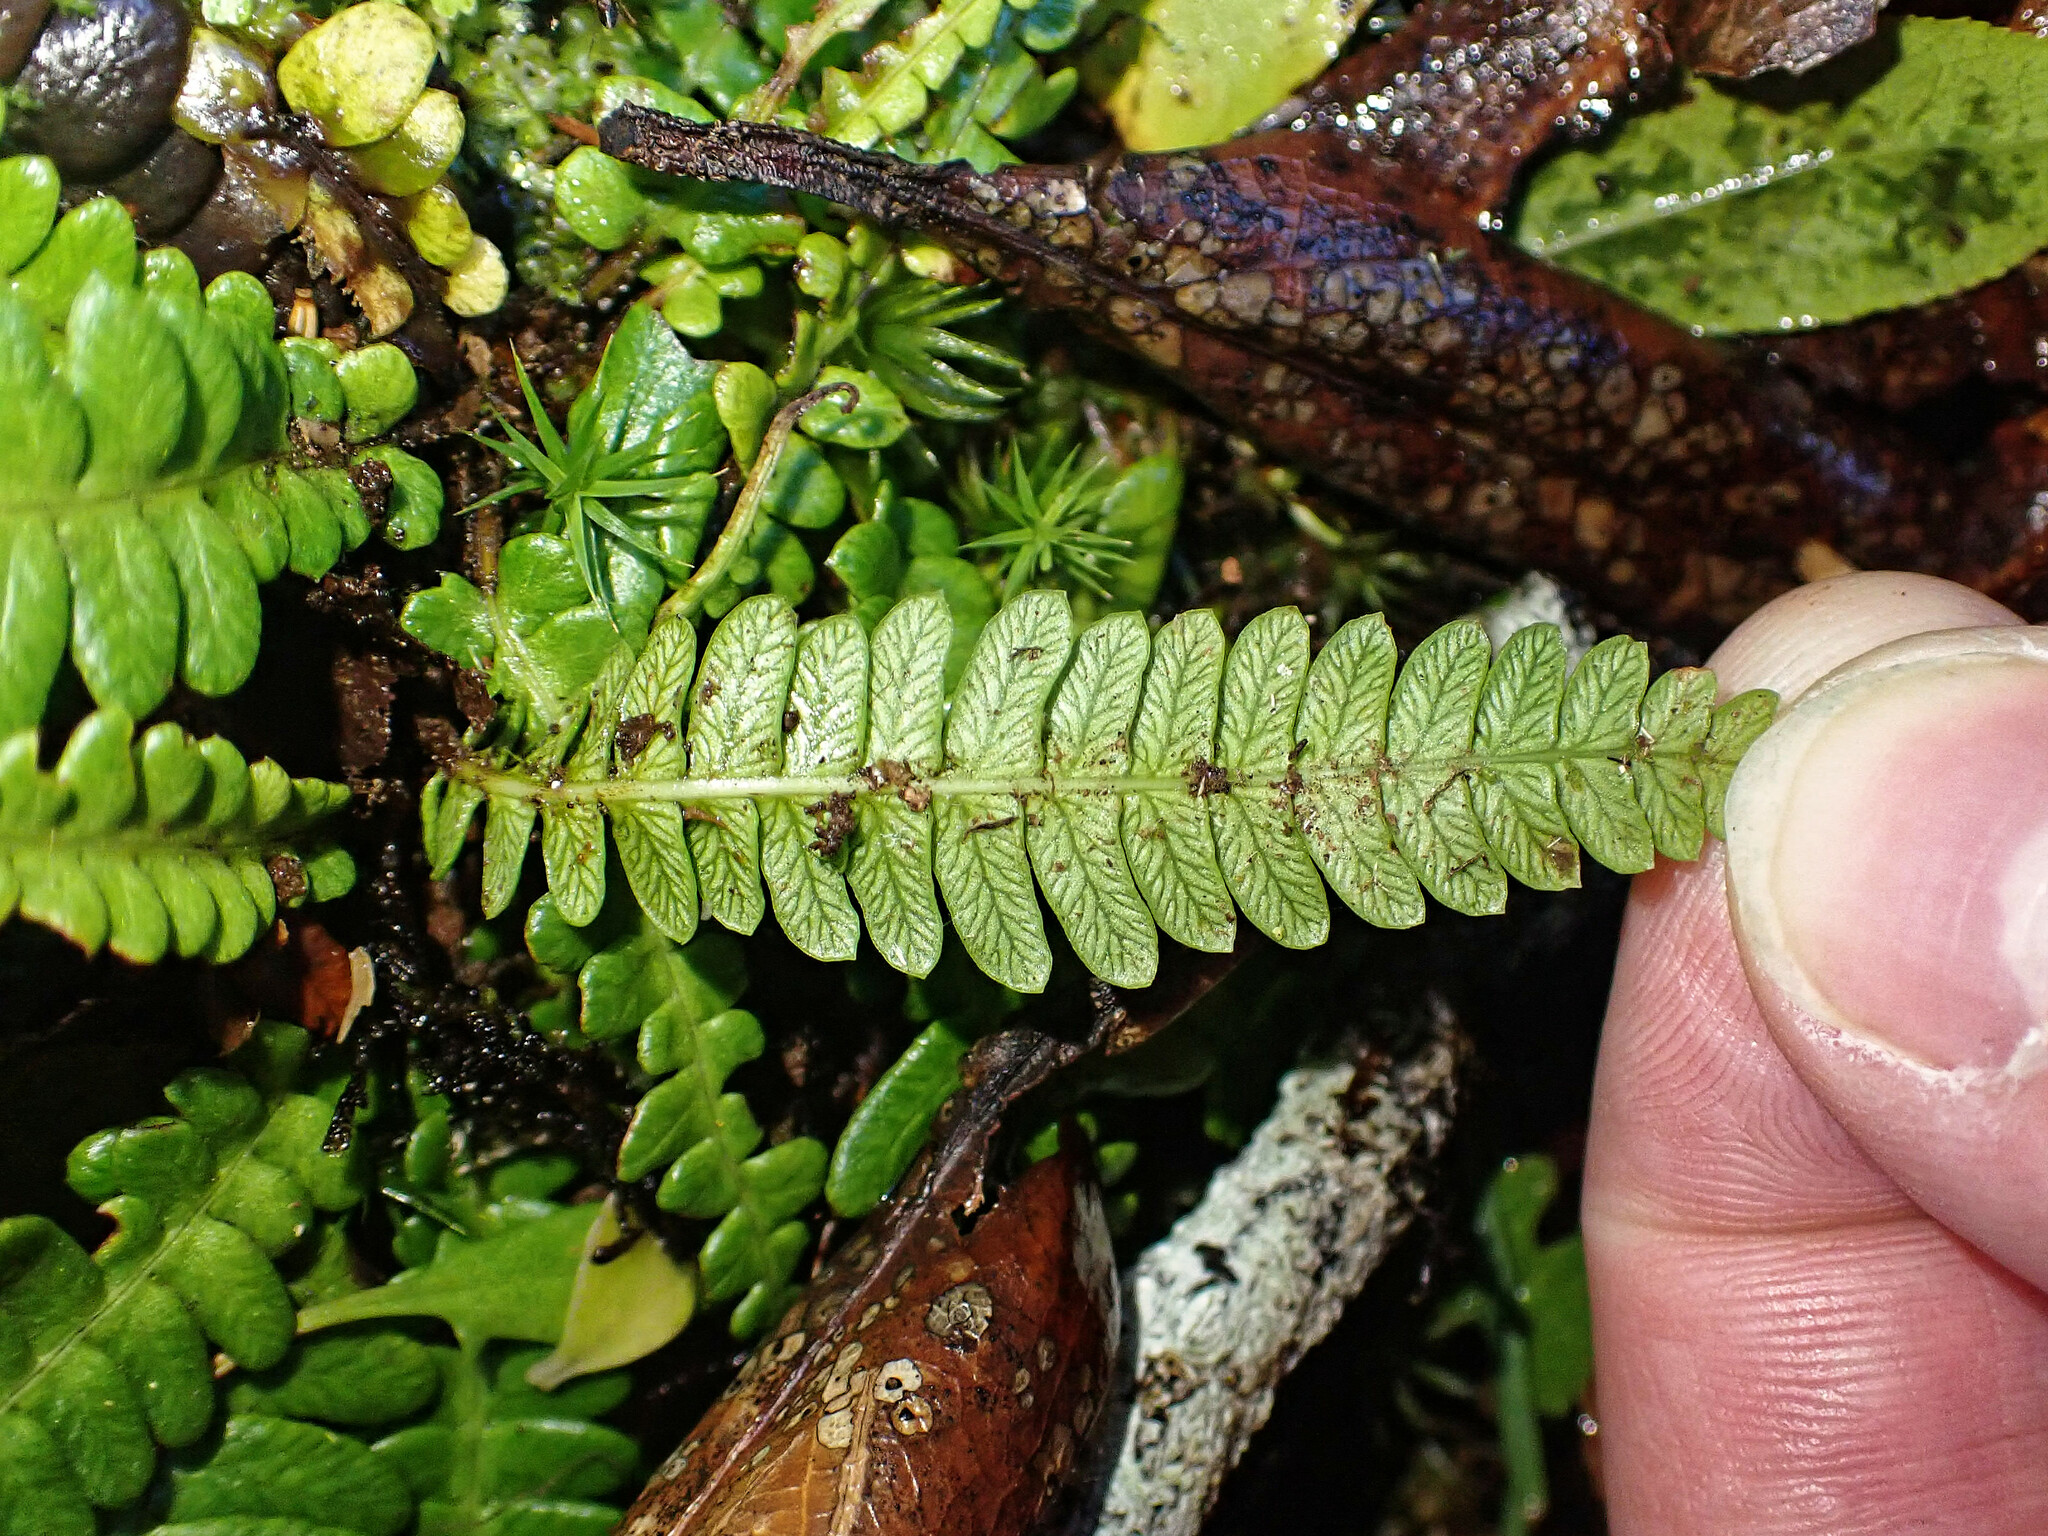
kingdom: Plantae
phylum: Tracheophyta
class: Polypodiopsida
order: Polypodiales
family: Blechnaceae
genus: Struthiopteris
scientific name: Struthiopteris spicant
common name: Deer fern
